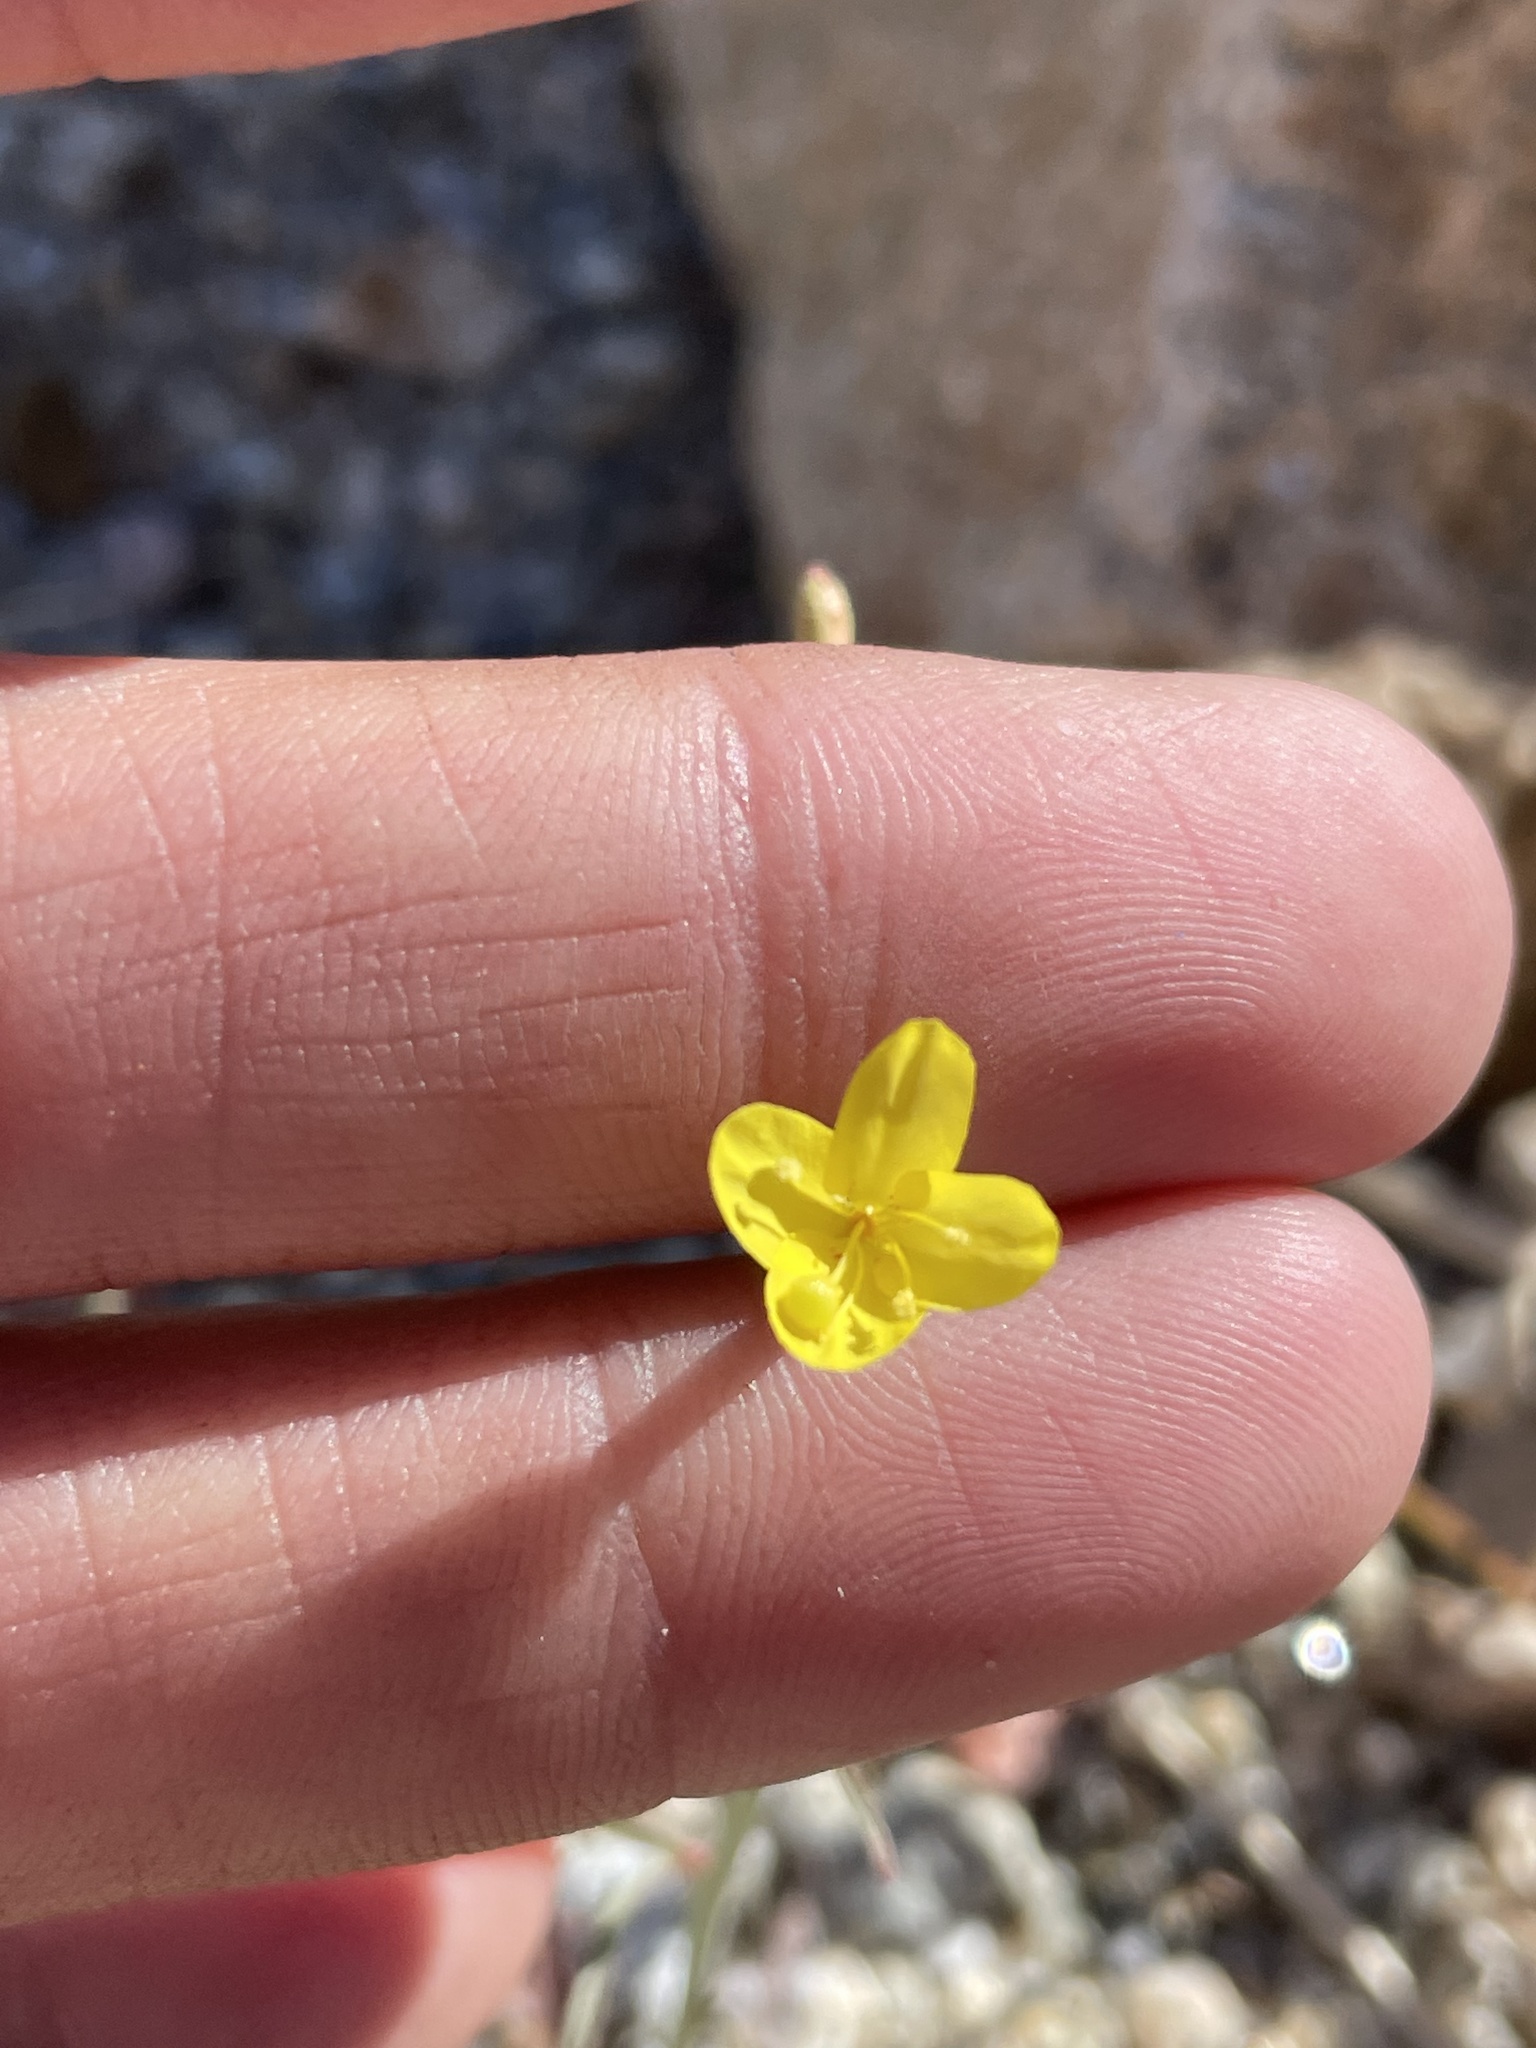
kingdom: Plantae
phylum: Tracheophyta
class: Magnoliopsida
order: Myrtales
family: Onagraceae
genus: Eulobus
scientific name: Eulobus californicus
